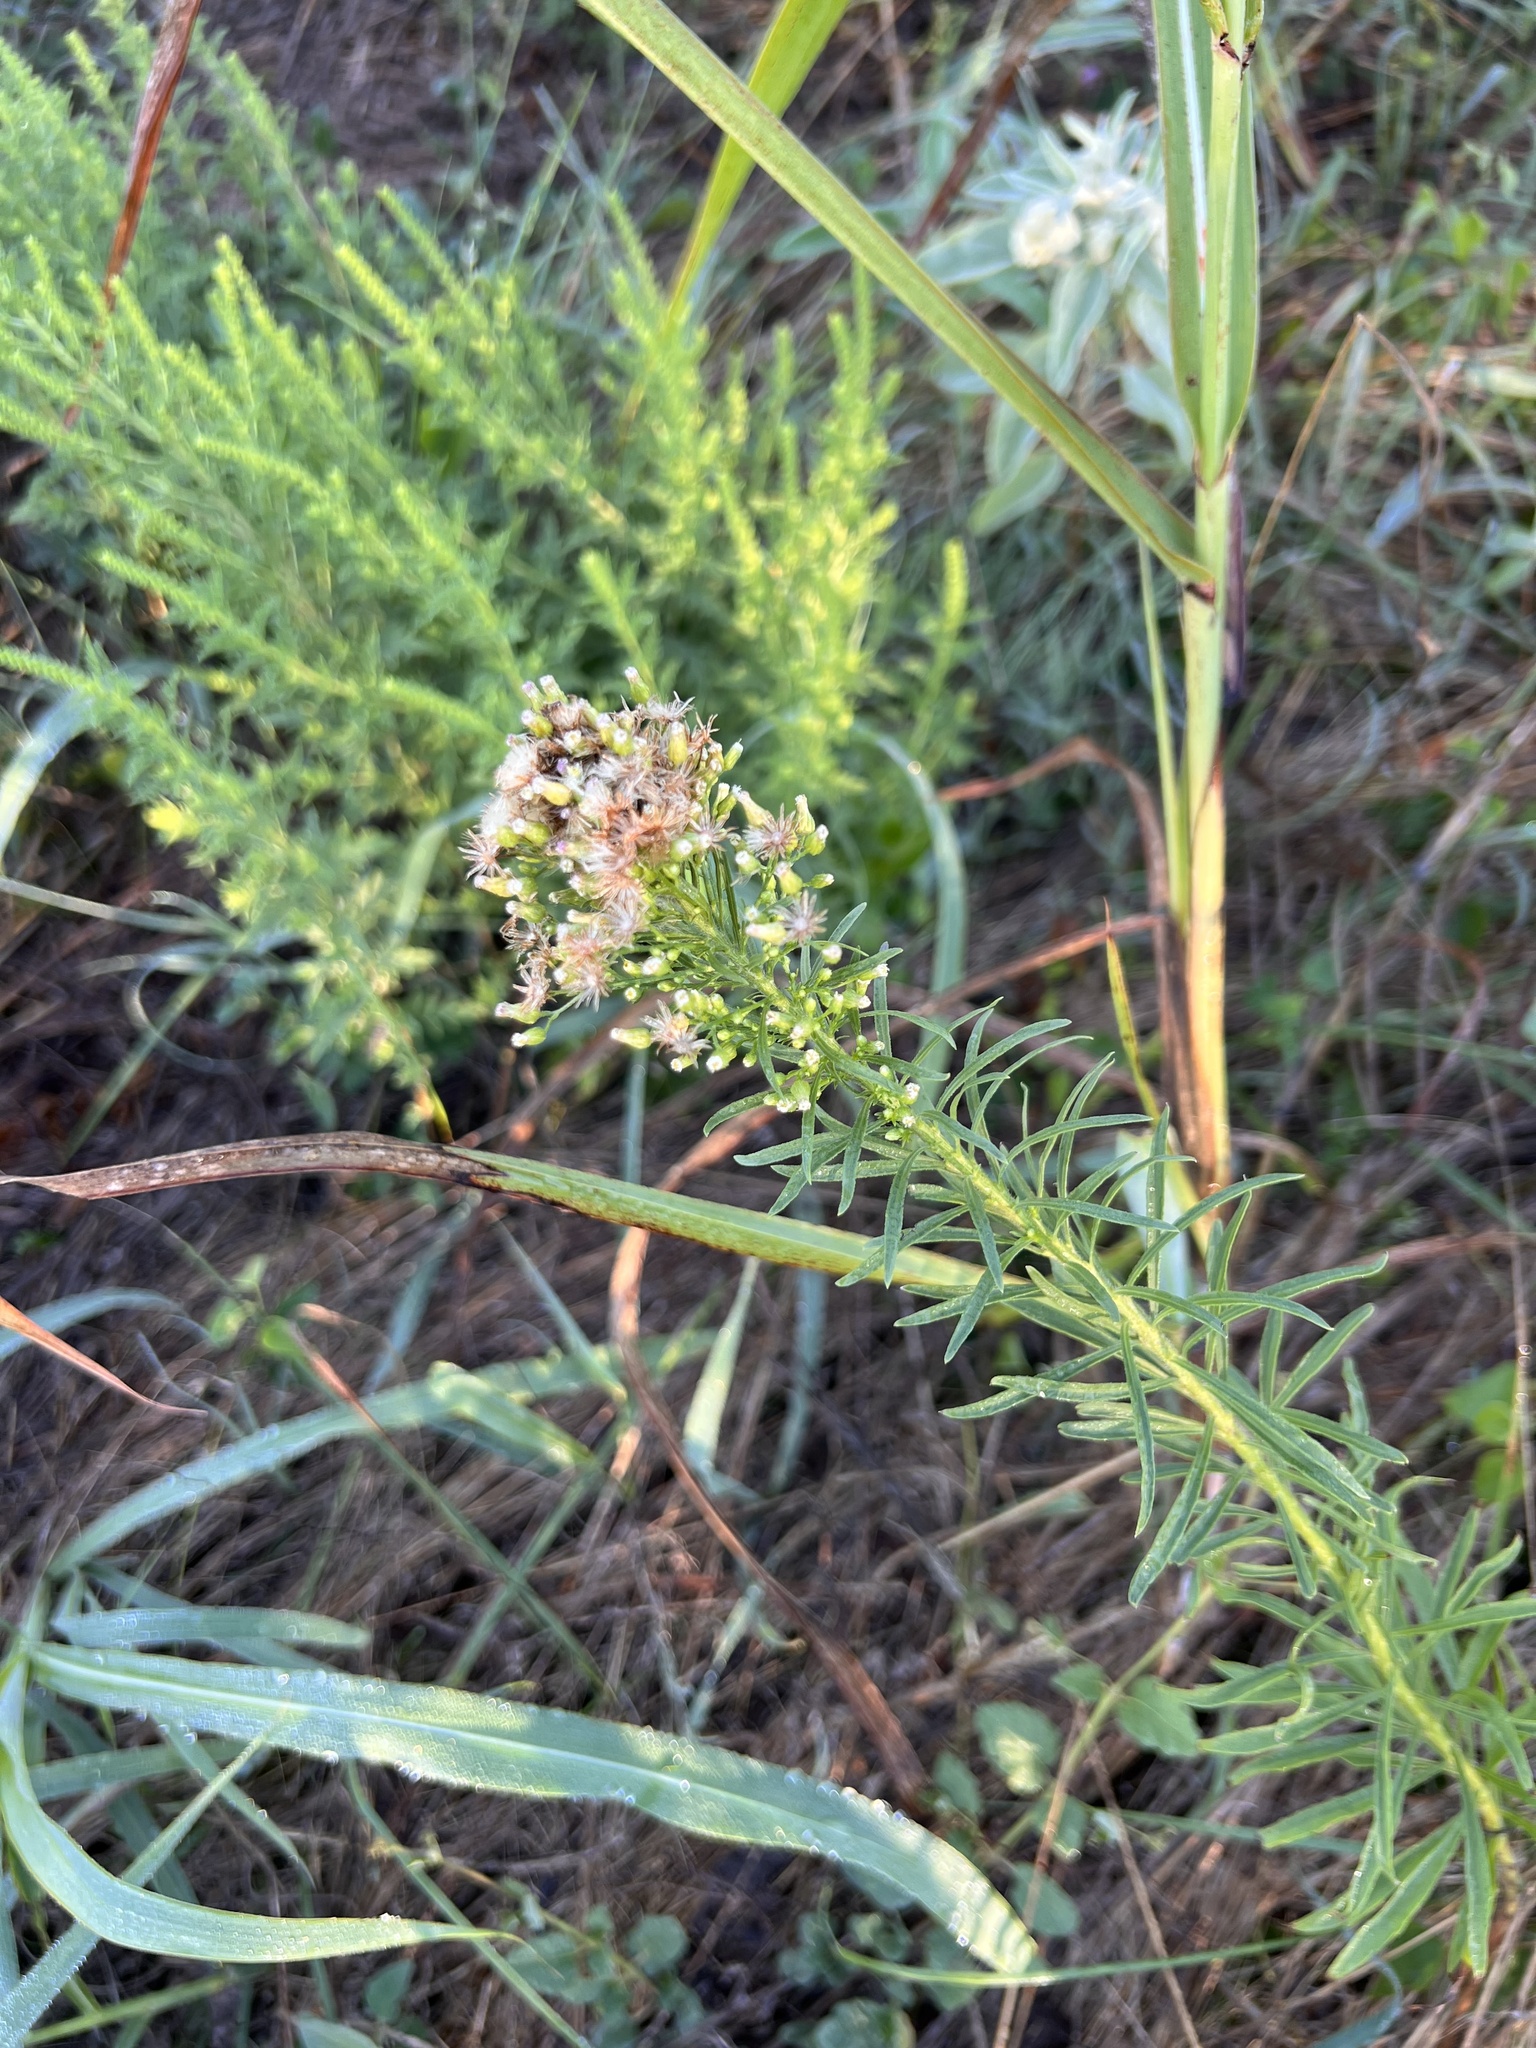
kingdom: Plantae
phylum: Tracheophyta
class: Magnoliopsida
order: Asterales
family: Asteraceae
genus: Erigeron
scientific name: Erigeron canadensis
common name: Canadian fleabane
